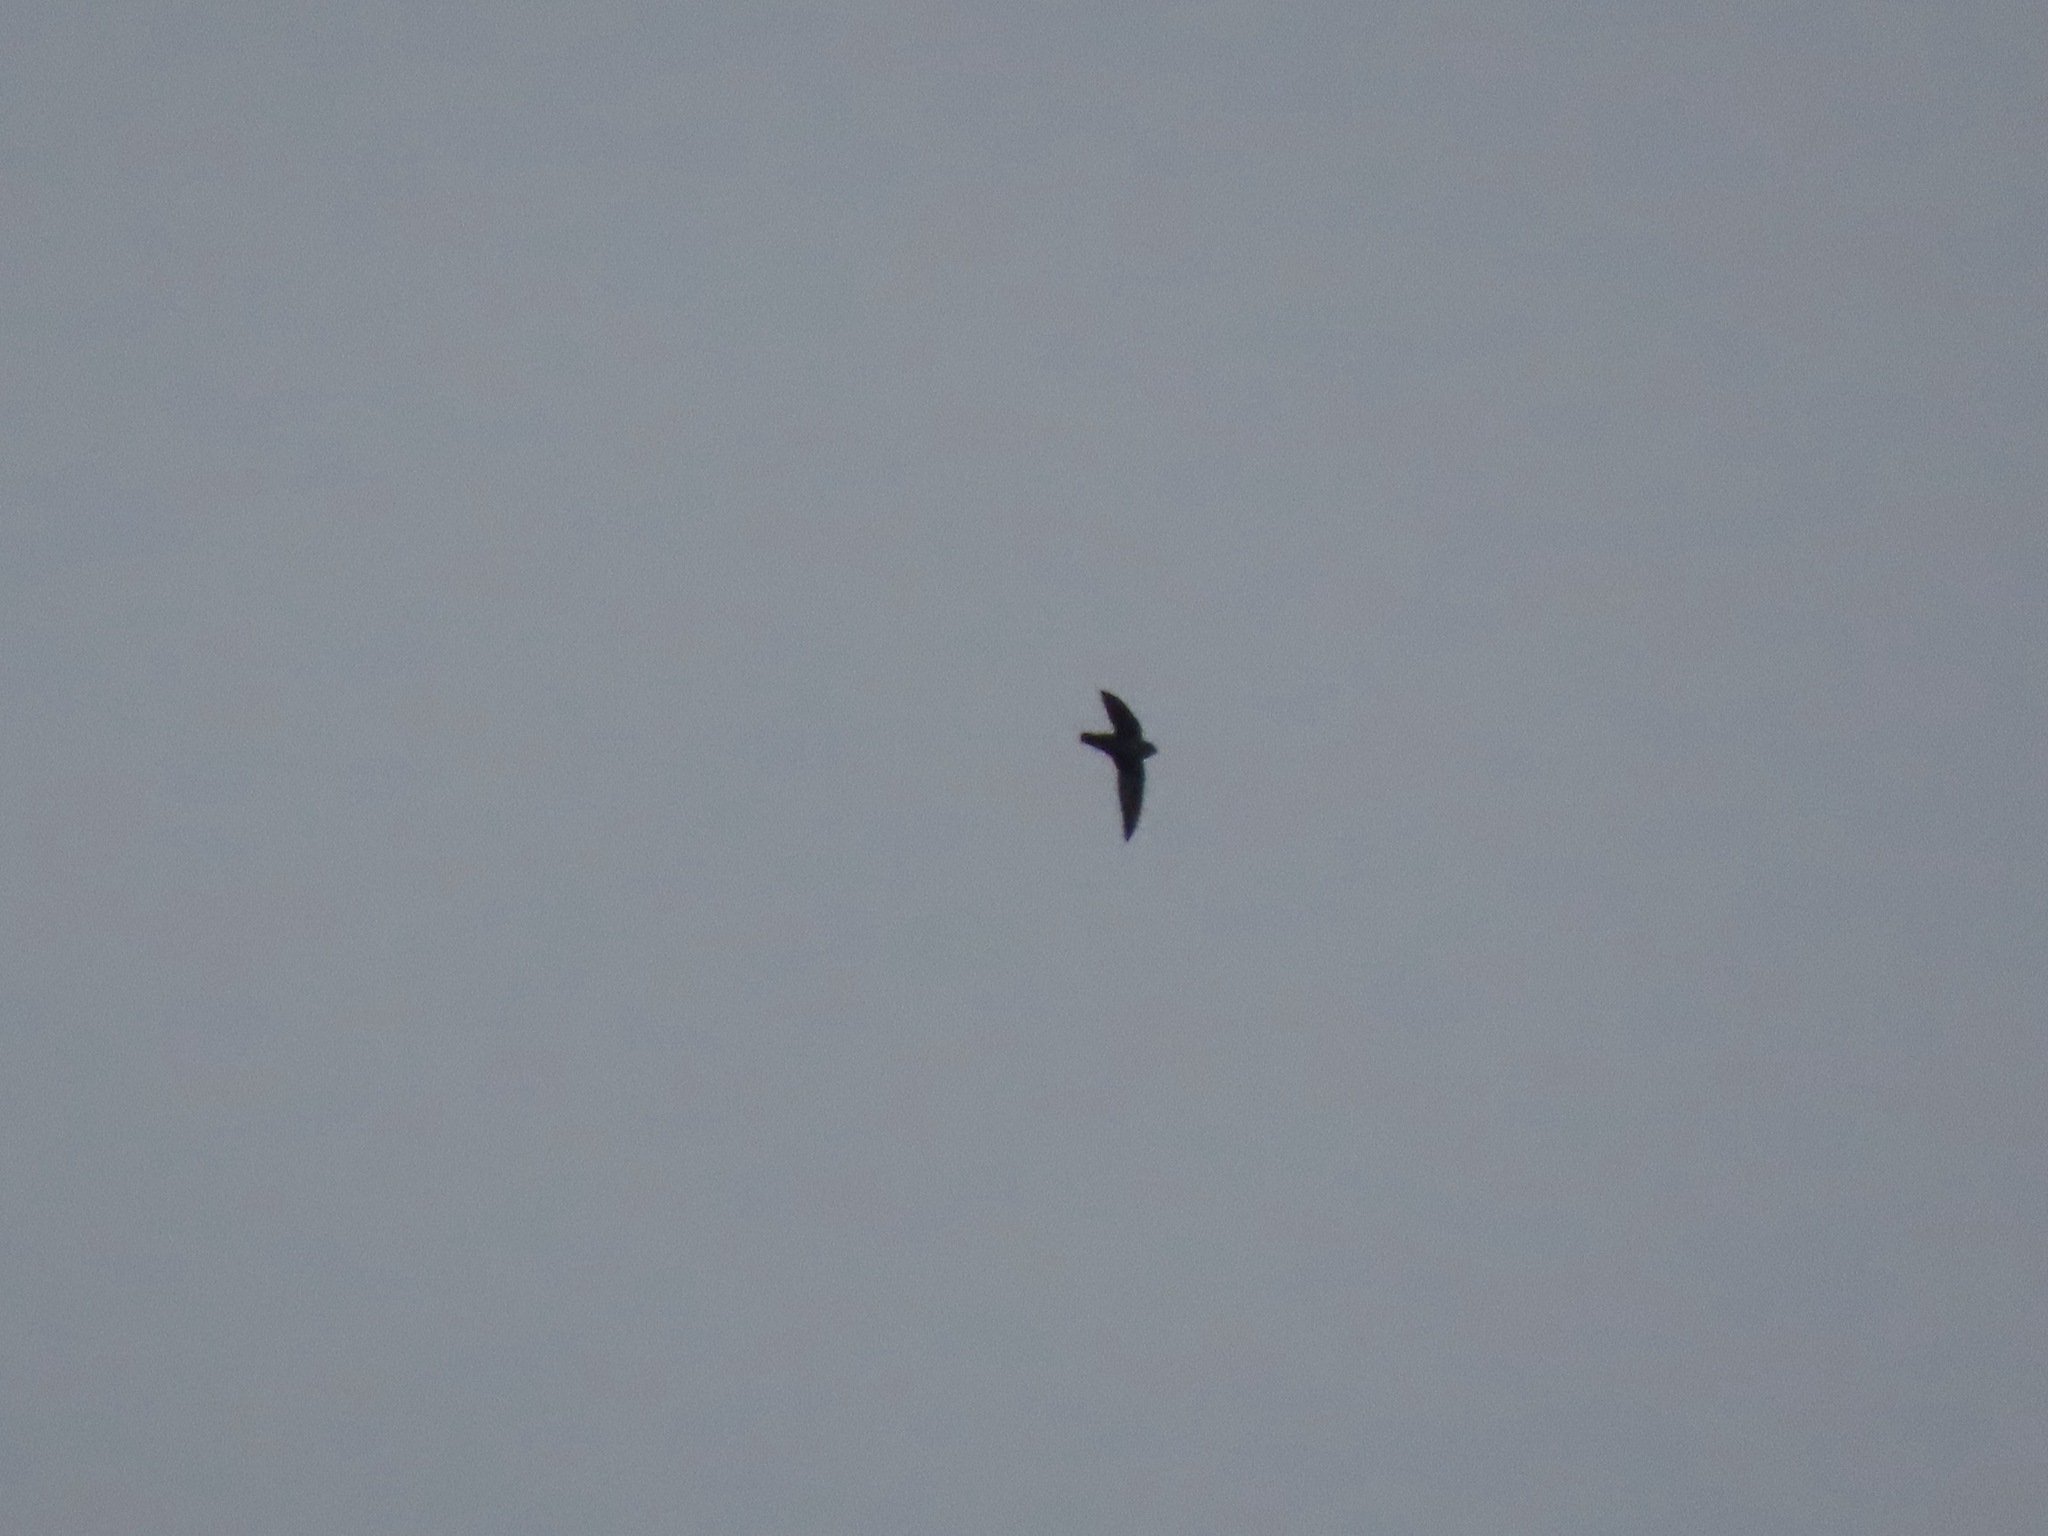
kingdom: Animalia
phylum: Chordata
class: Aves
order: Apodiformes
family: Apodidae
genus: Chaetura
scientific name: Chaetura vauxi
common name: Vaux's swift
